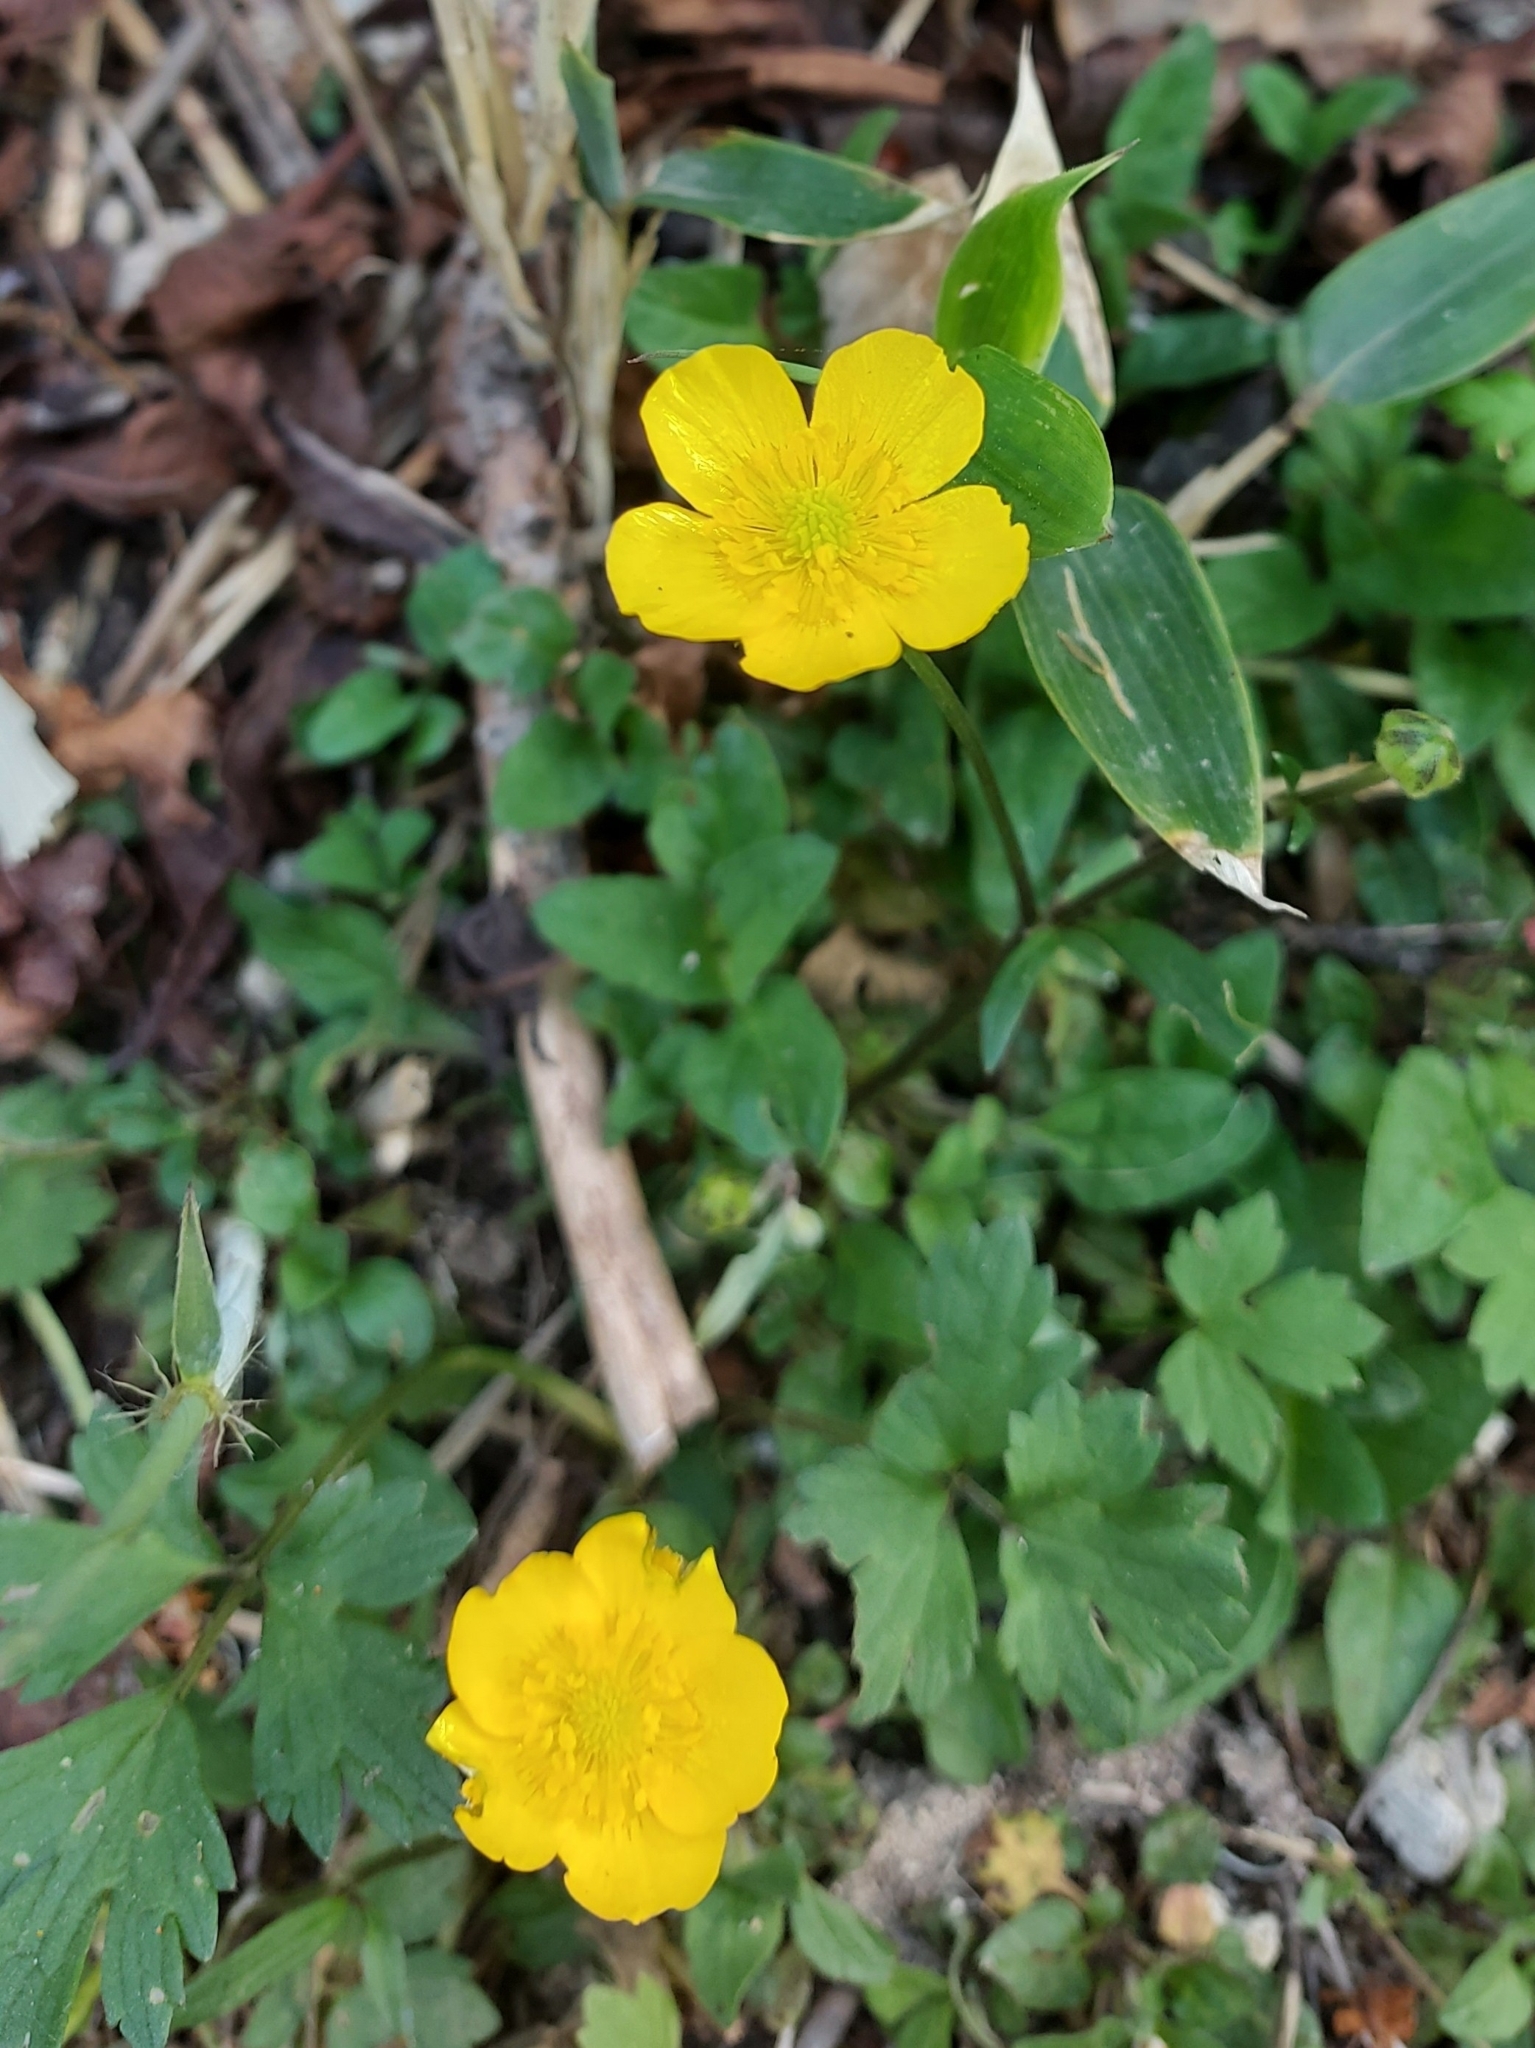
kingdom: Plantae
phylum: Tracheophyta
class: Magnoliopsida
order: Ranunculales
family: Ranunculaceae
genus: Ranunculus
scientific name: Ranunculus repens
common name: Creeping buttercup
